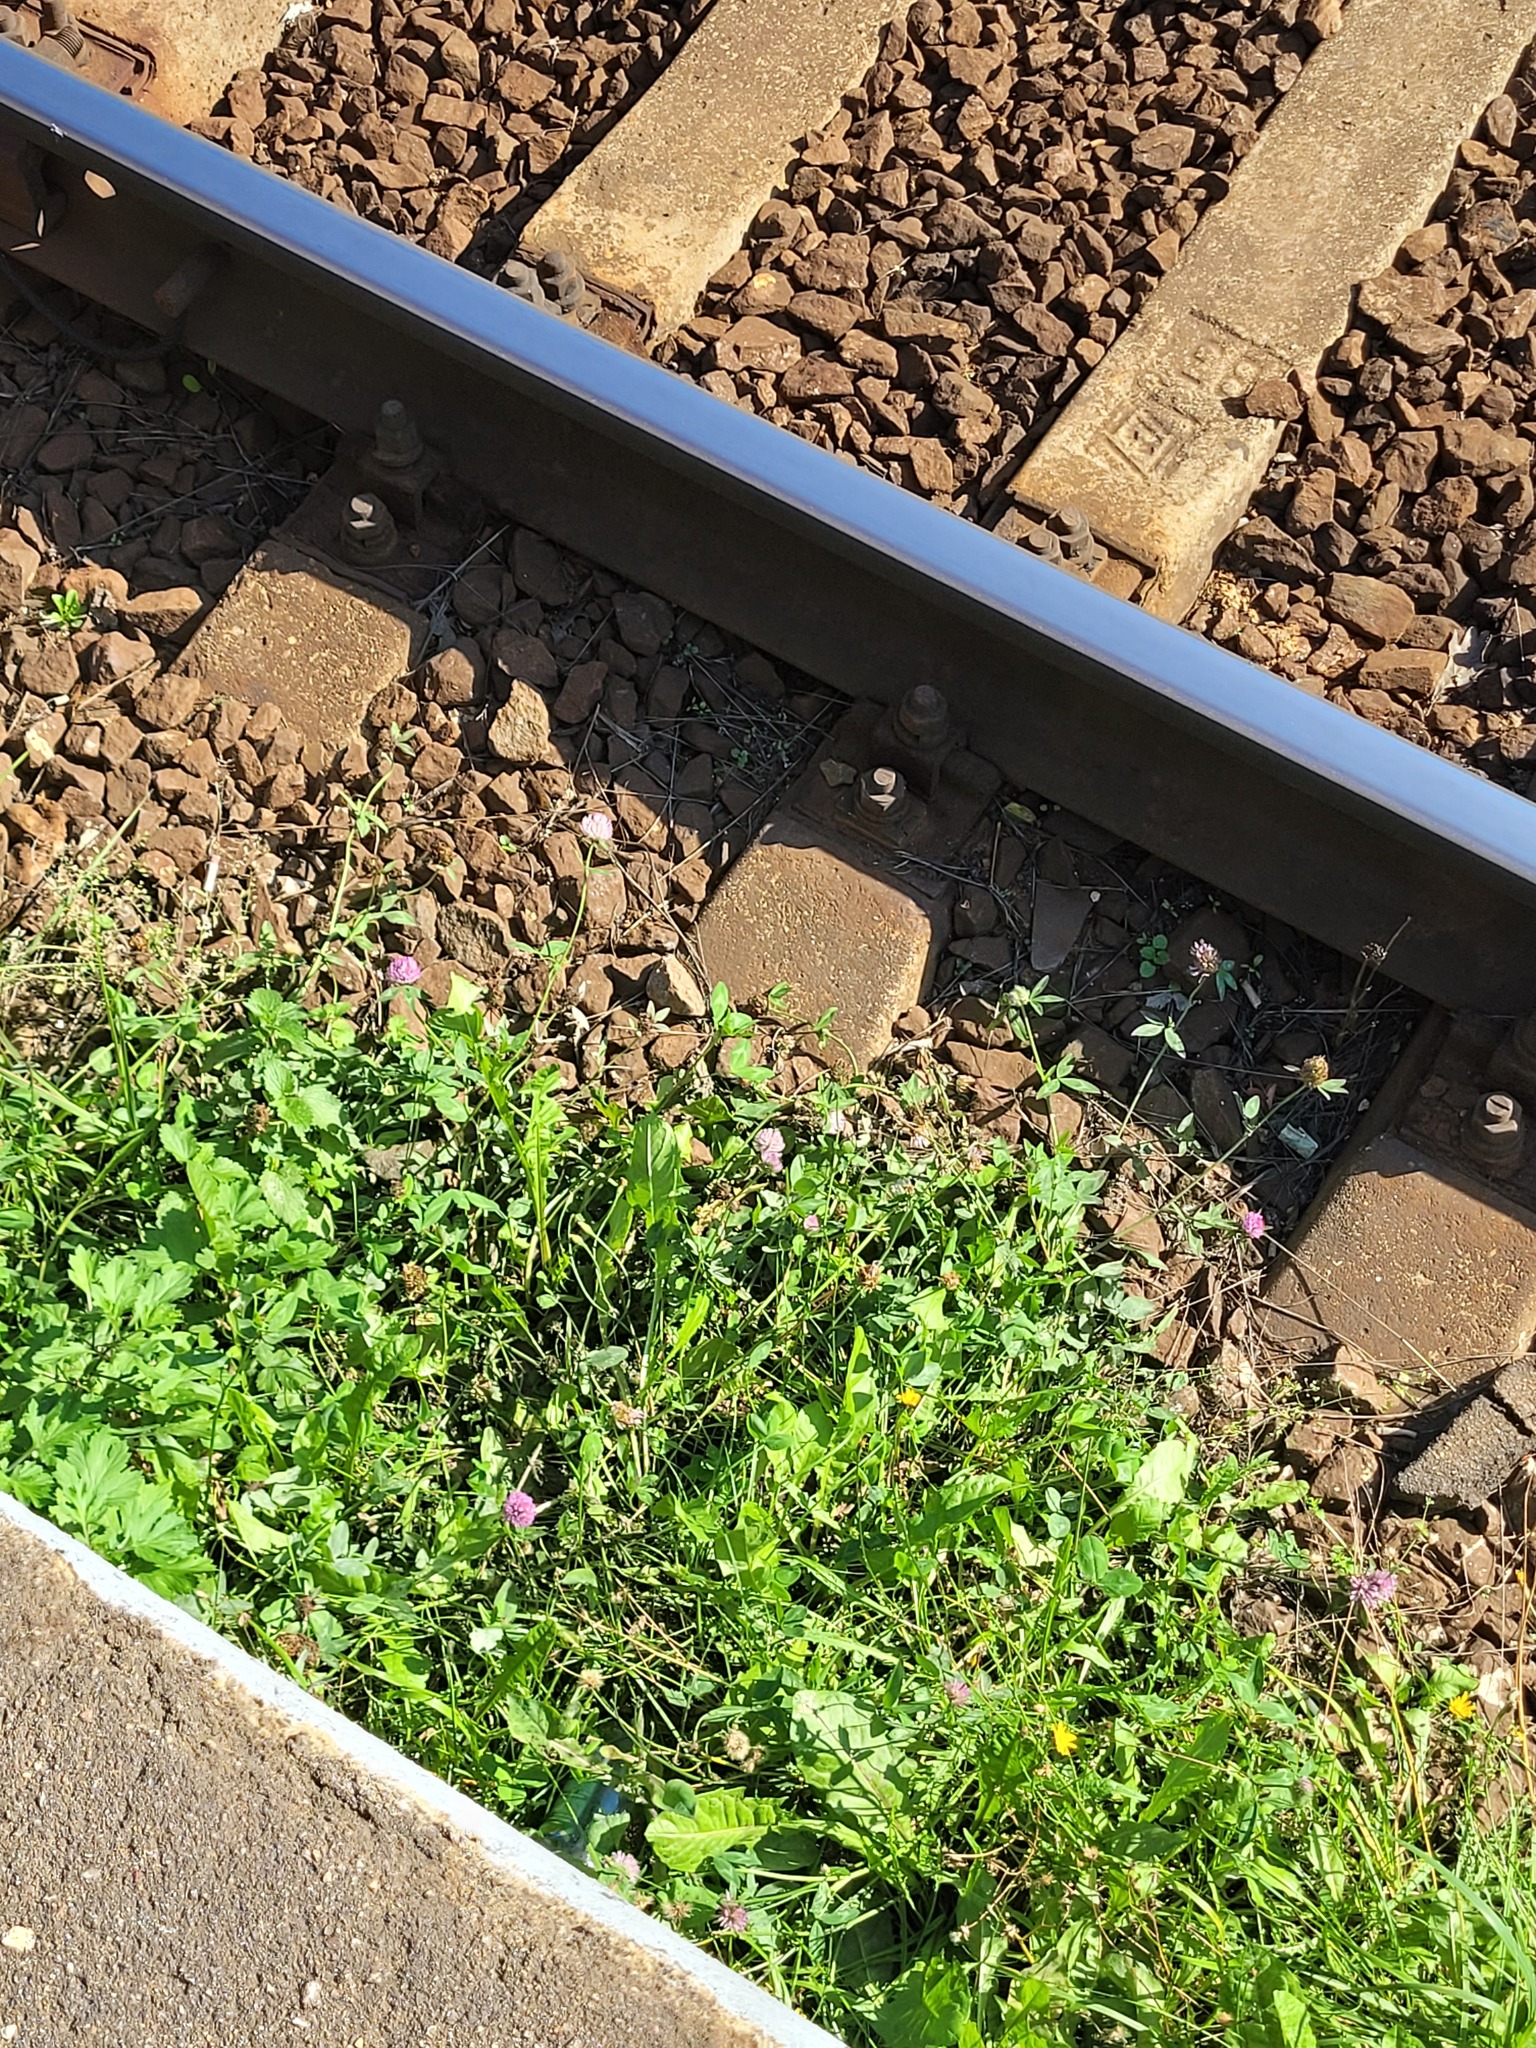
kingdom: Plantae
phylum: Tracheophyta
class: Magnoliopsida
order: Fabales
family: Fabaceae
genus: Trifolium
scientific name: Trifolium pratense
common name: Red clover
